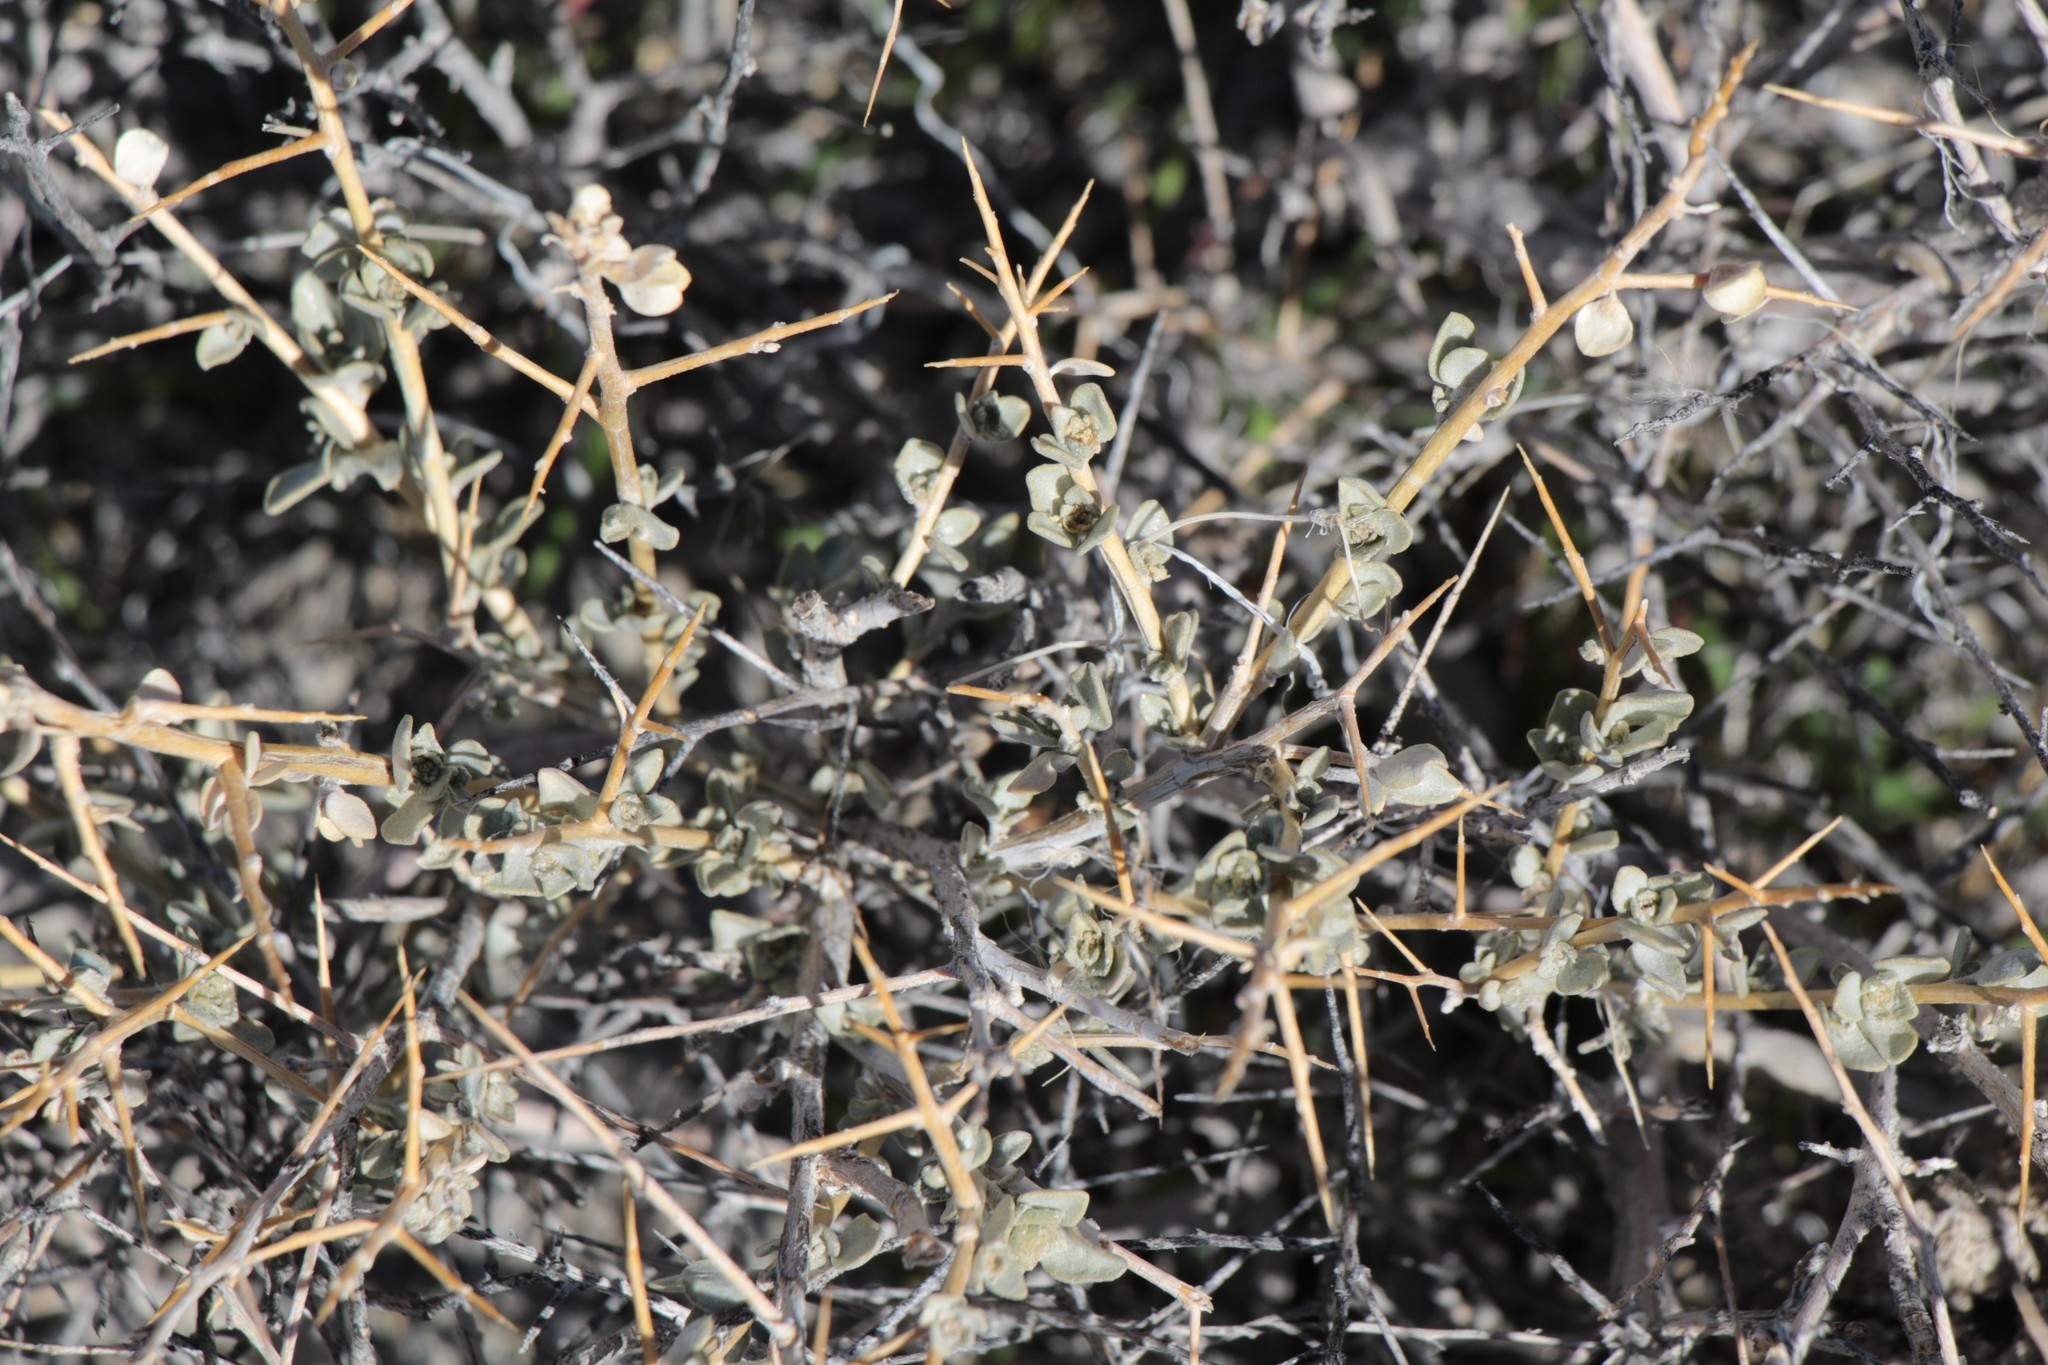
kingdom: Plantae
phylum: Tracheophyta
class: Magnoliopsida
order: Caryophyllales
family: Amaranthaceae
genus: Atriplex
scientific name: Atriplex confertifolia
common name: Shadscale
